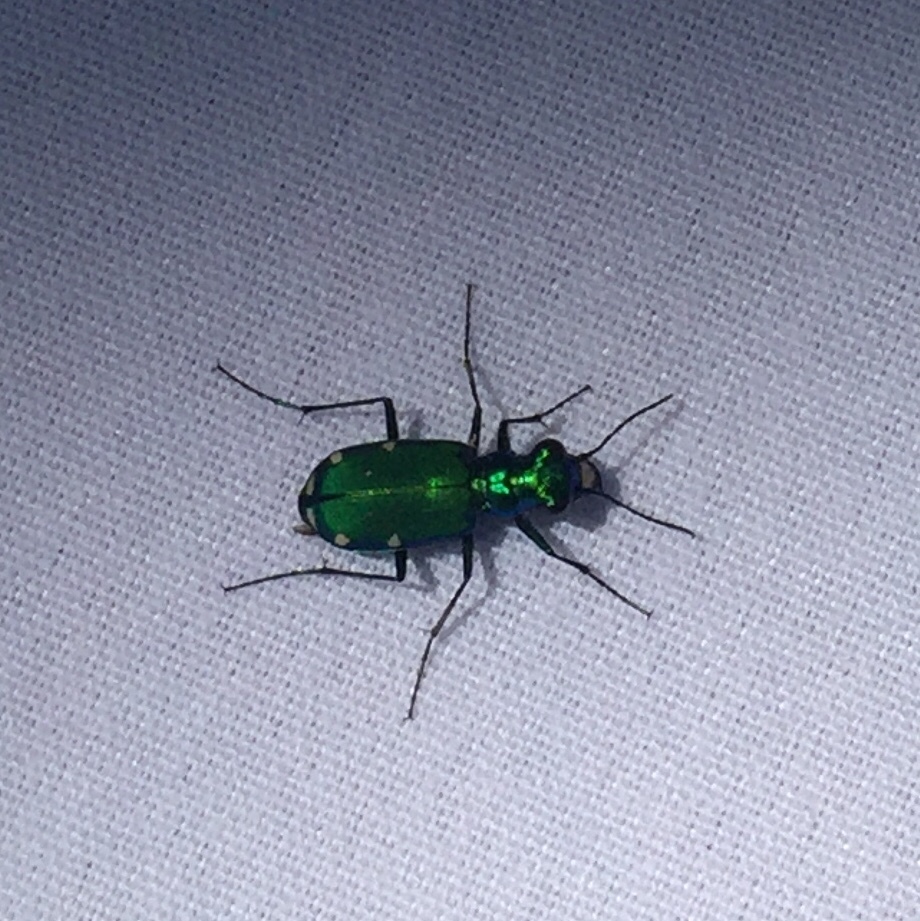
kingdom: Animalia
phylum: Arthropoda
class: Insecta
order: Coleoptera
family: Carabidae
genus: Cicindela
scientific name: Cicindela sexguttata
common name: Six-spotted tiger beetle
